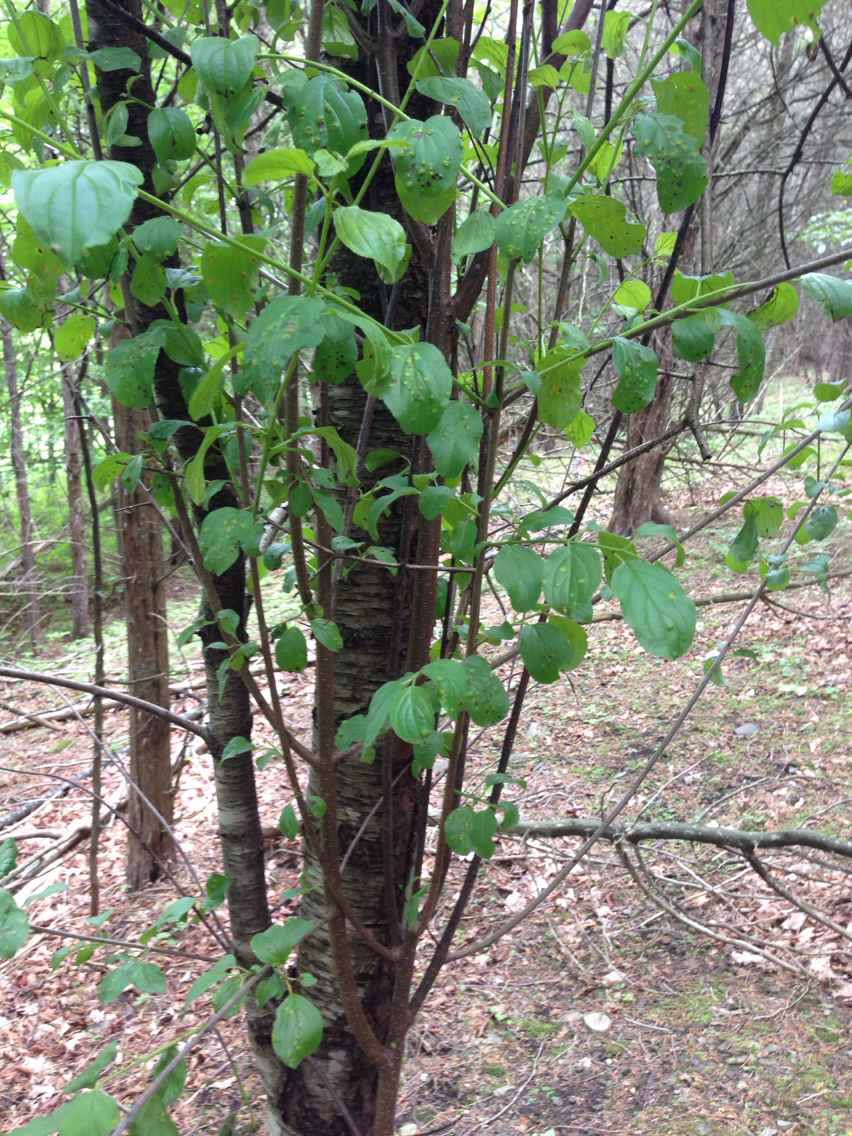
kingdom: Plantae
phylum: Tracheophyta
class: Magnoliopsida
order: Rosales
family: Rhamnaceae
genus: Rhamnus
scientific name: Rhamnus cathartica
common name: Common buckthorn
